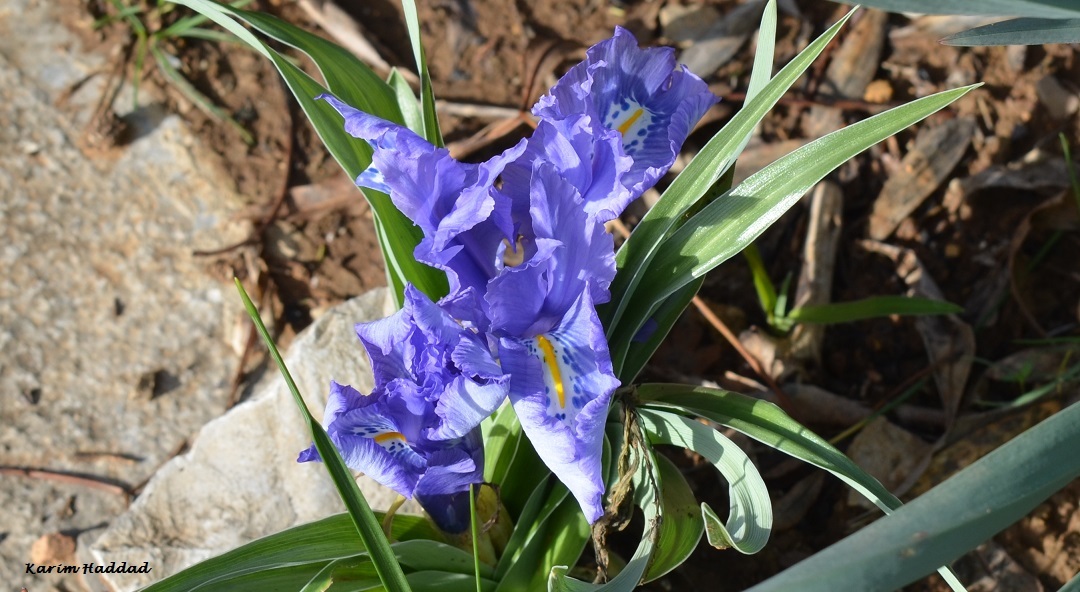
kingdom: Plantae
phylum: Tracheophyta
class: Liliopsida
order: Asparagales
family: Iridaceae
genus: Iris
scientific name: Iris planifolia
